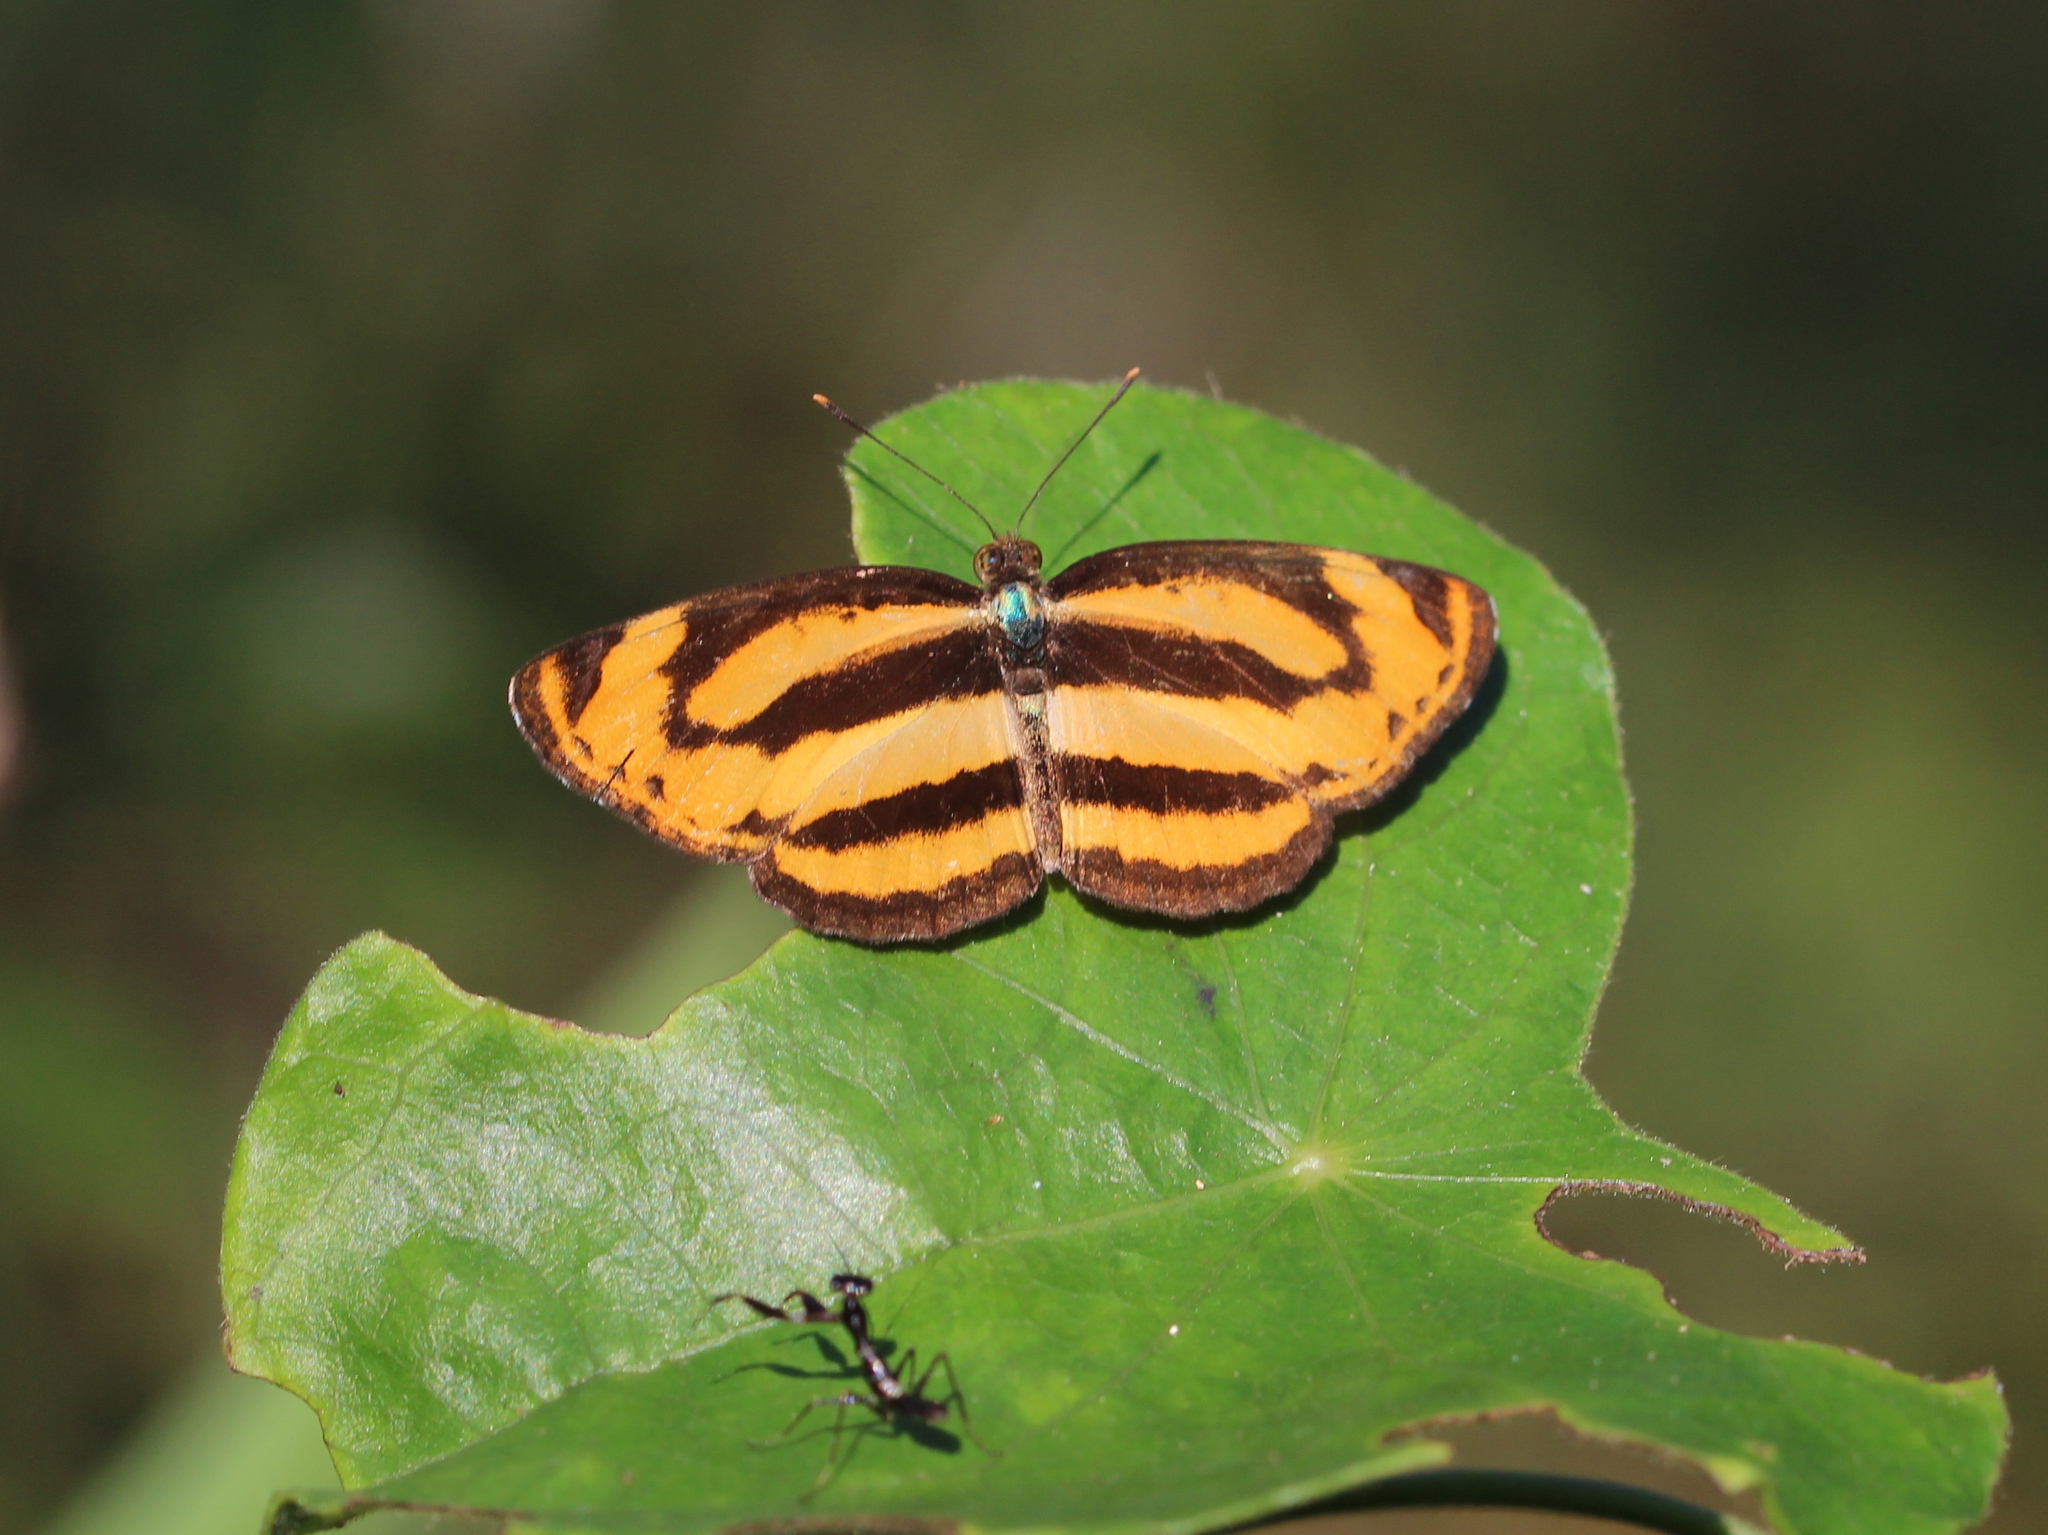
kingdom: Animalia
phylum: Arthropoda
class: Insecta
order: Lepidoptera
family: Nymphalidae
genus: Pantoporia
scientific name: Pantoporia sandaka
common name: Extra lascar
